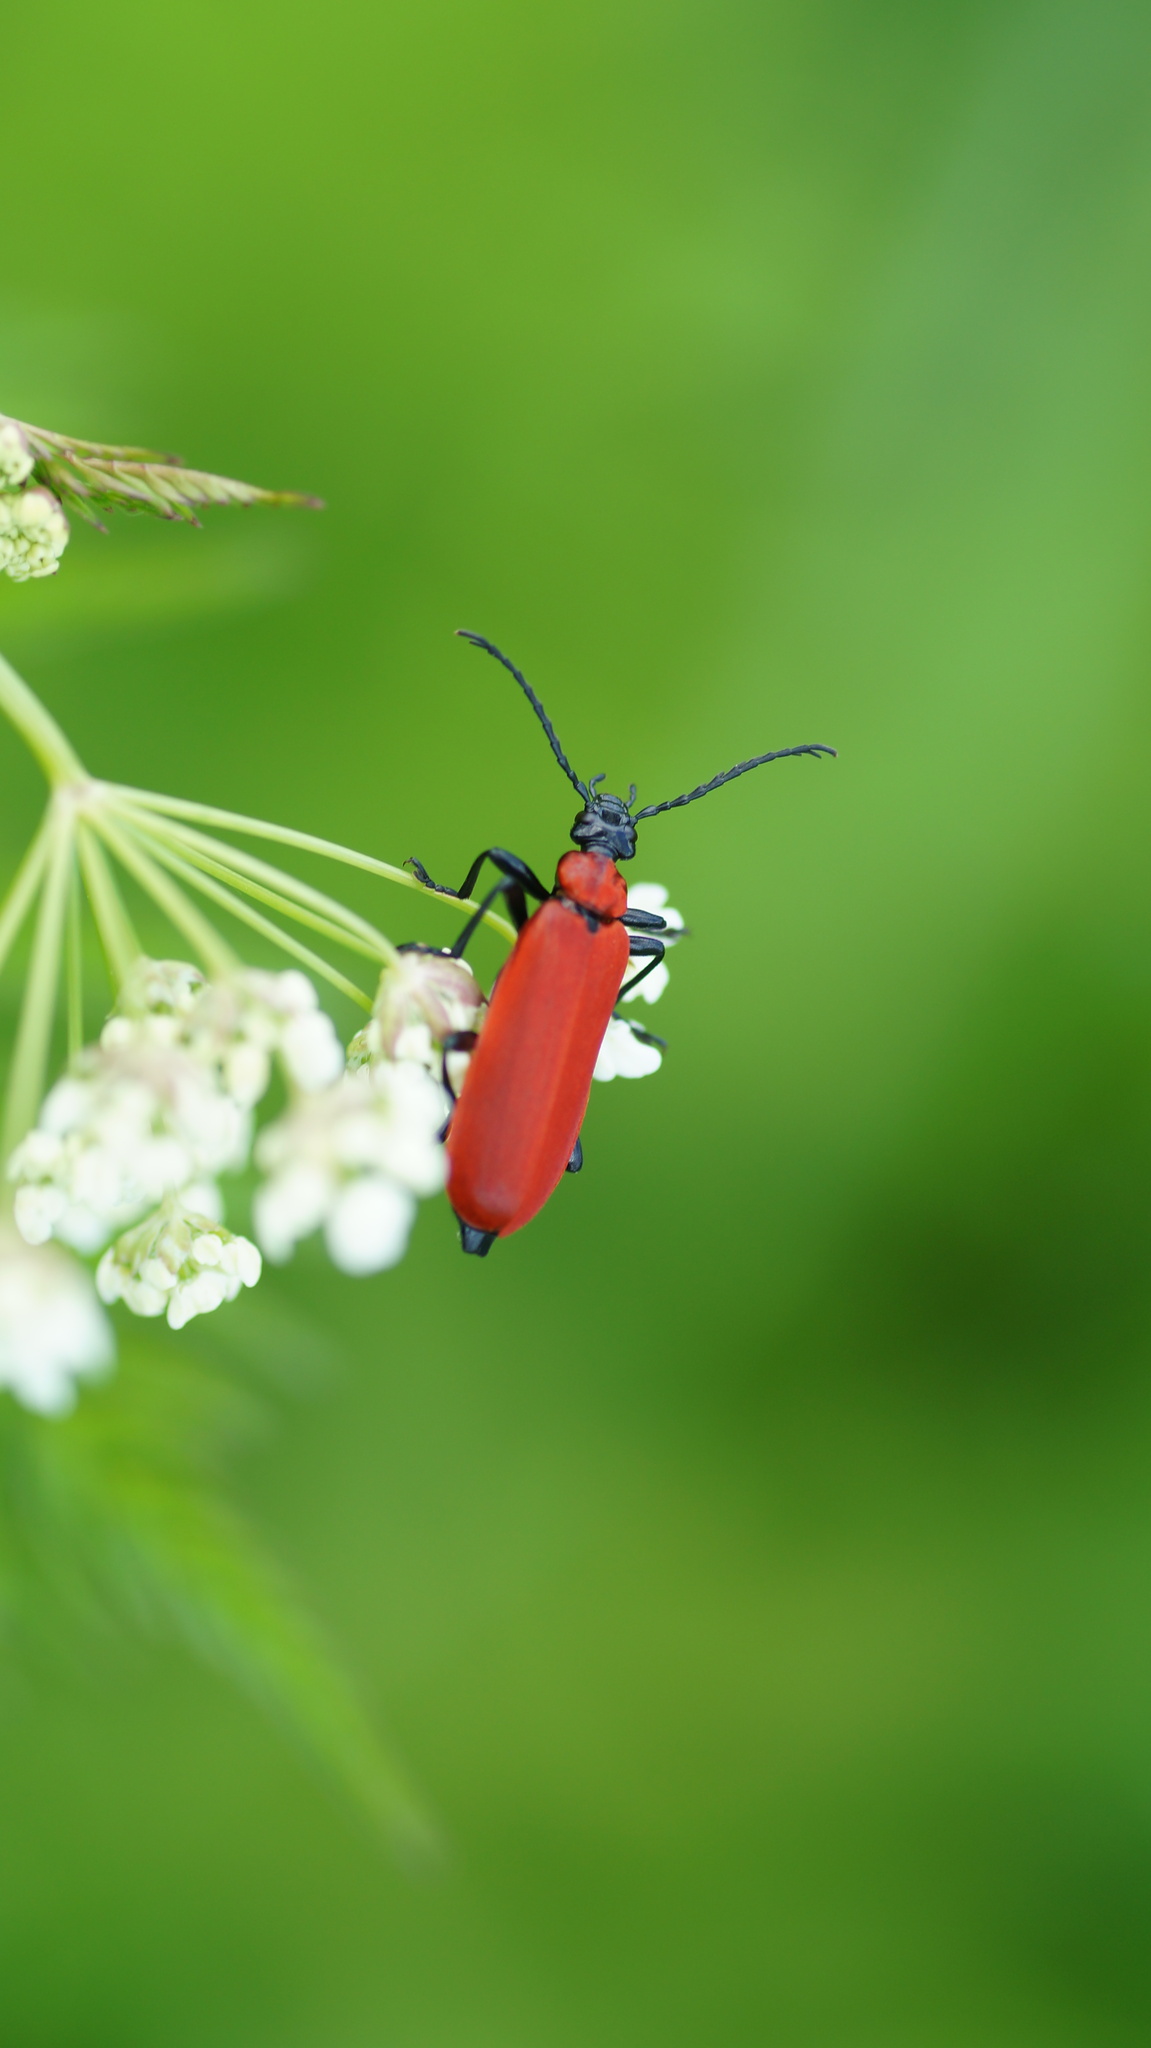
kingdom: Animalia
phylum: Arthropoda
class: Insecta
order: Coleoptera
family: Pyrochroidae
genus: Pyrochroa
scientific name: Pyrochroa coccinea
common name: Black-headed cardinal beetle
